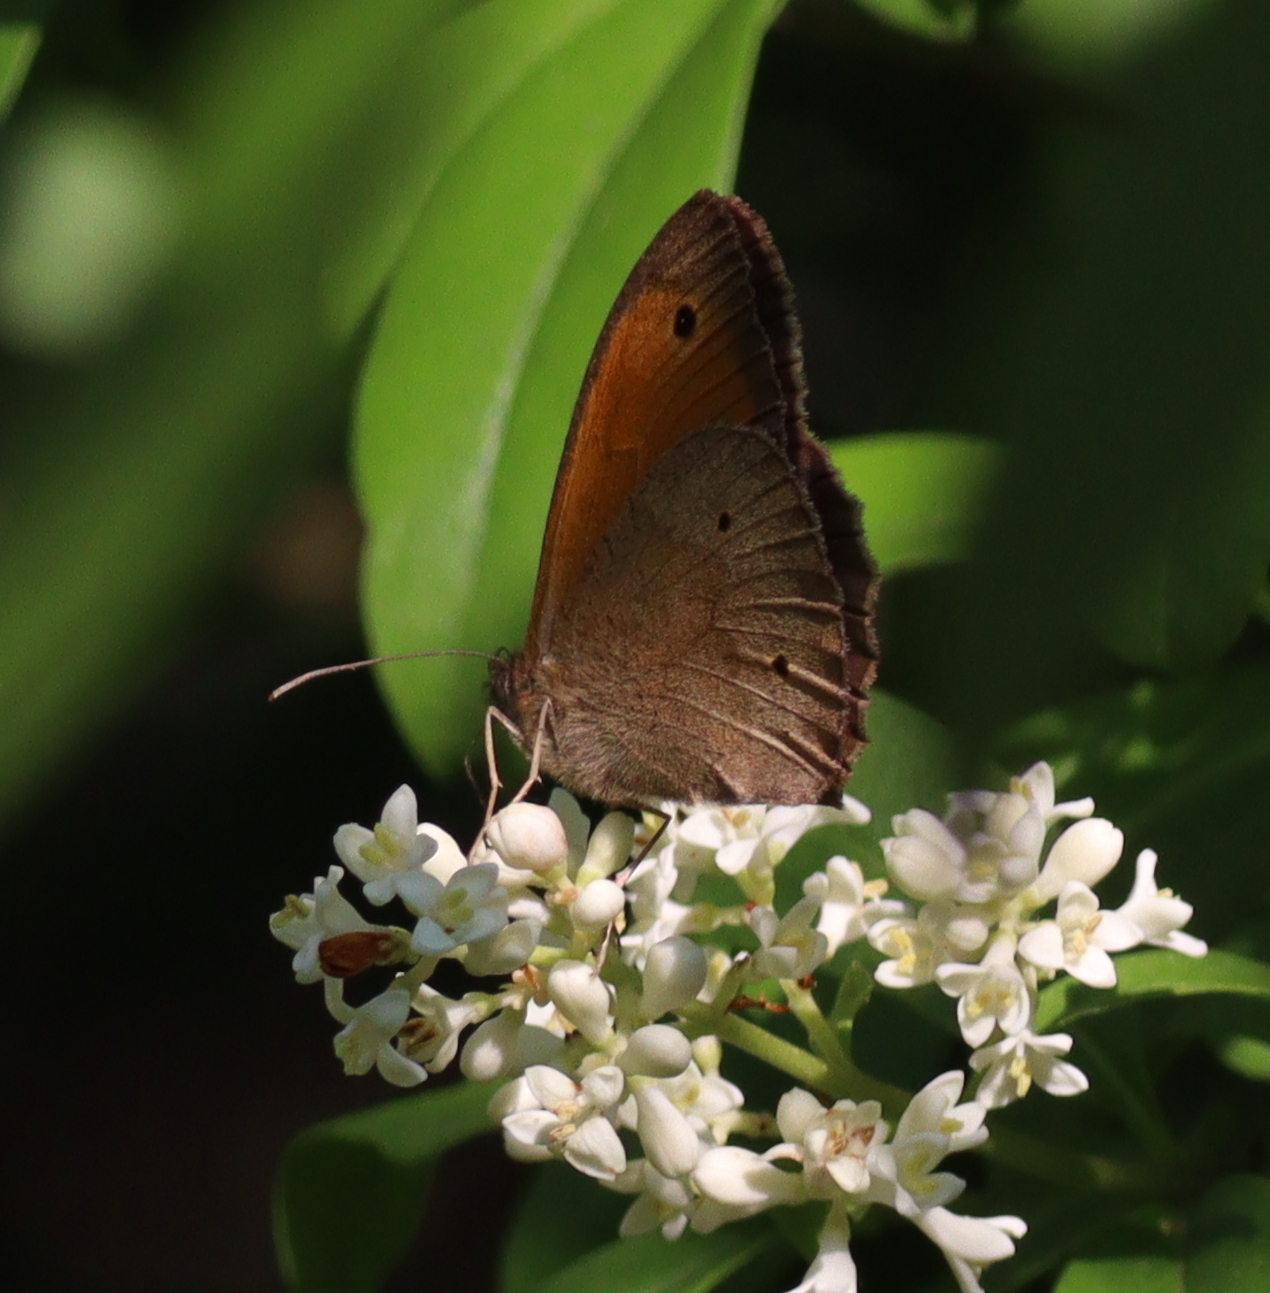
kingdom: Animalia
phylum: Arthropoda
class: Insecta
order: Lepidoptera
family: Nymphalidae
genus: Maniola
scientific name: Maniola jurtina
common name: Meadow brown
